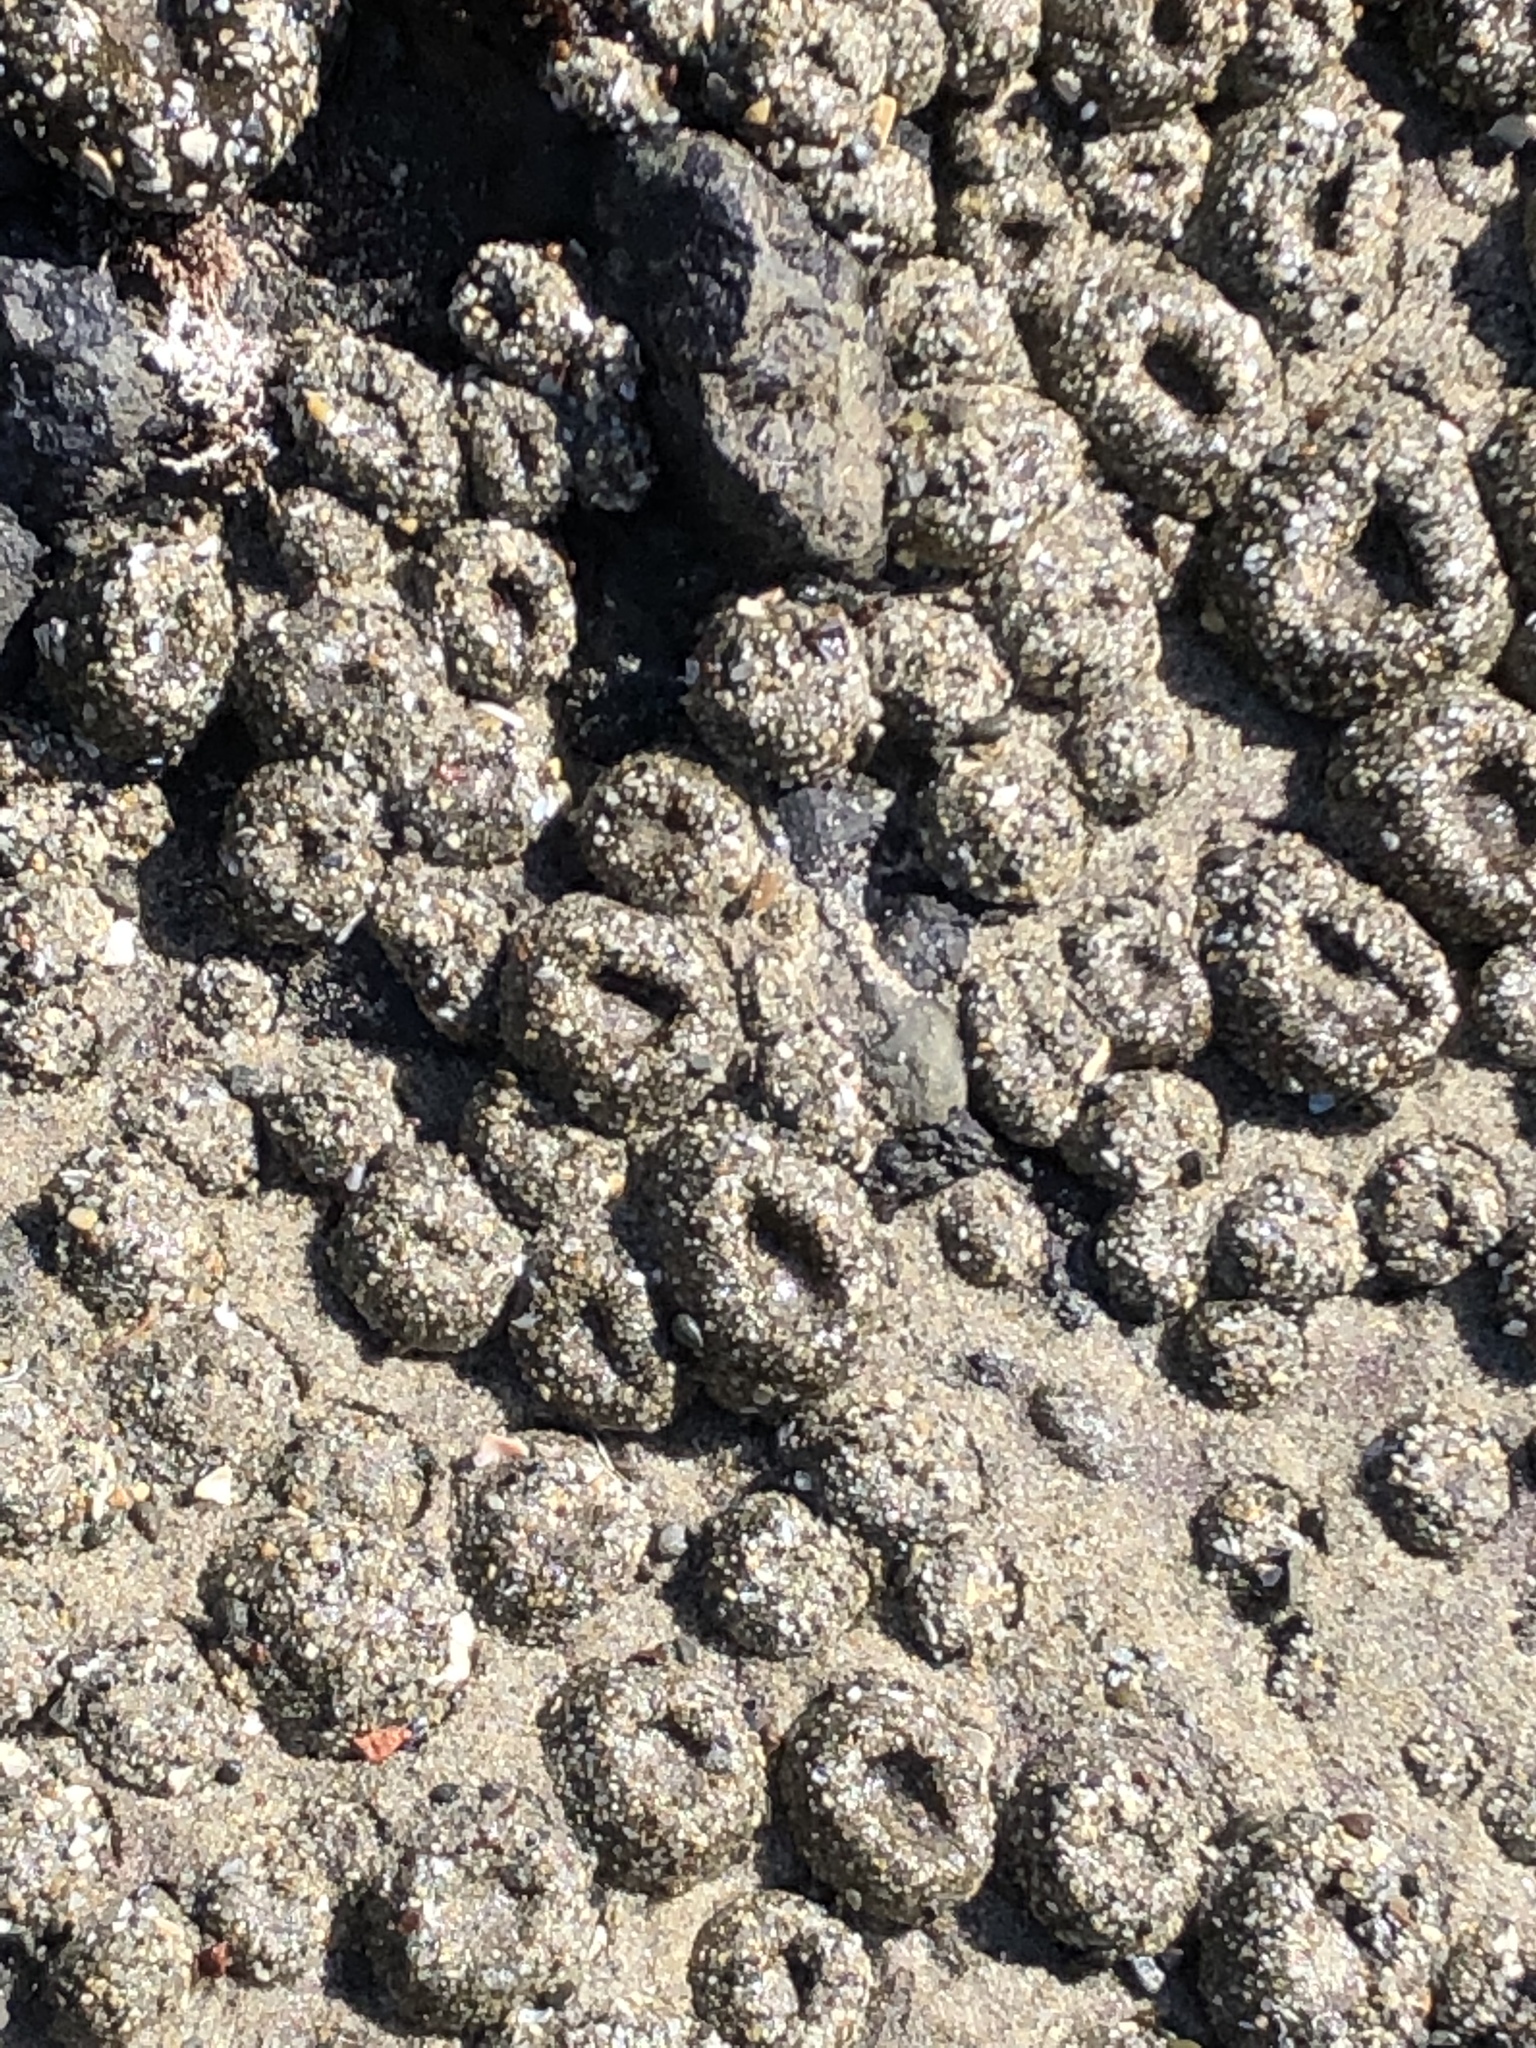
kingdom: Animalia
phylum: Cnidaria
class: Anthozoa
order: Actiniaria
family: Actiniidae
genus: Anthopleura
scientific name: Anthopleura elegantissima
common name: Clonal anemone
